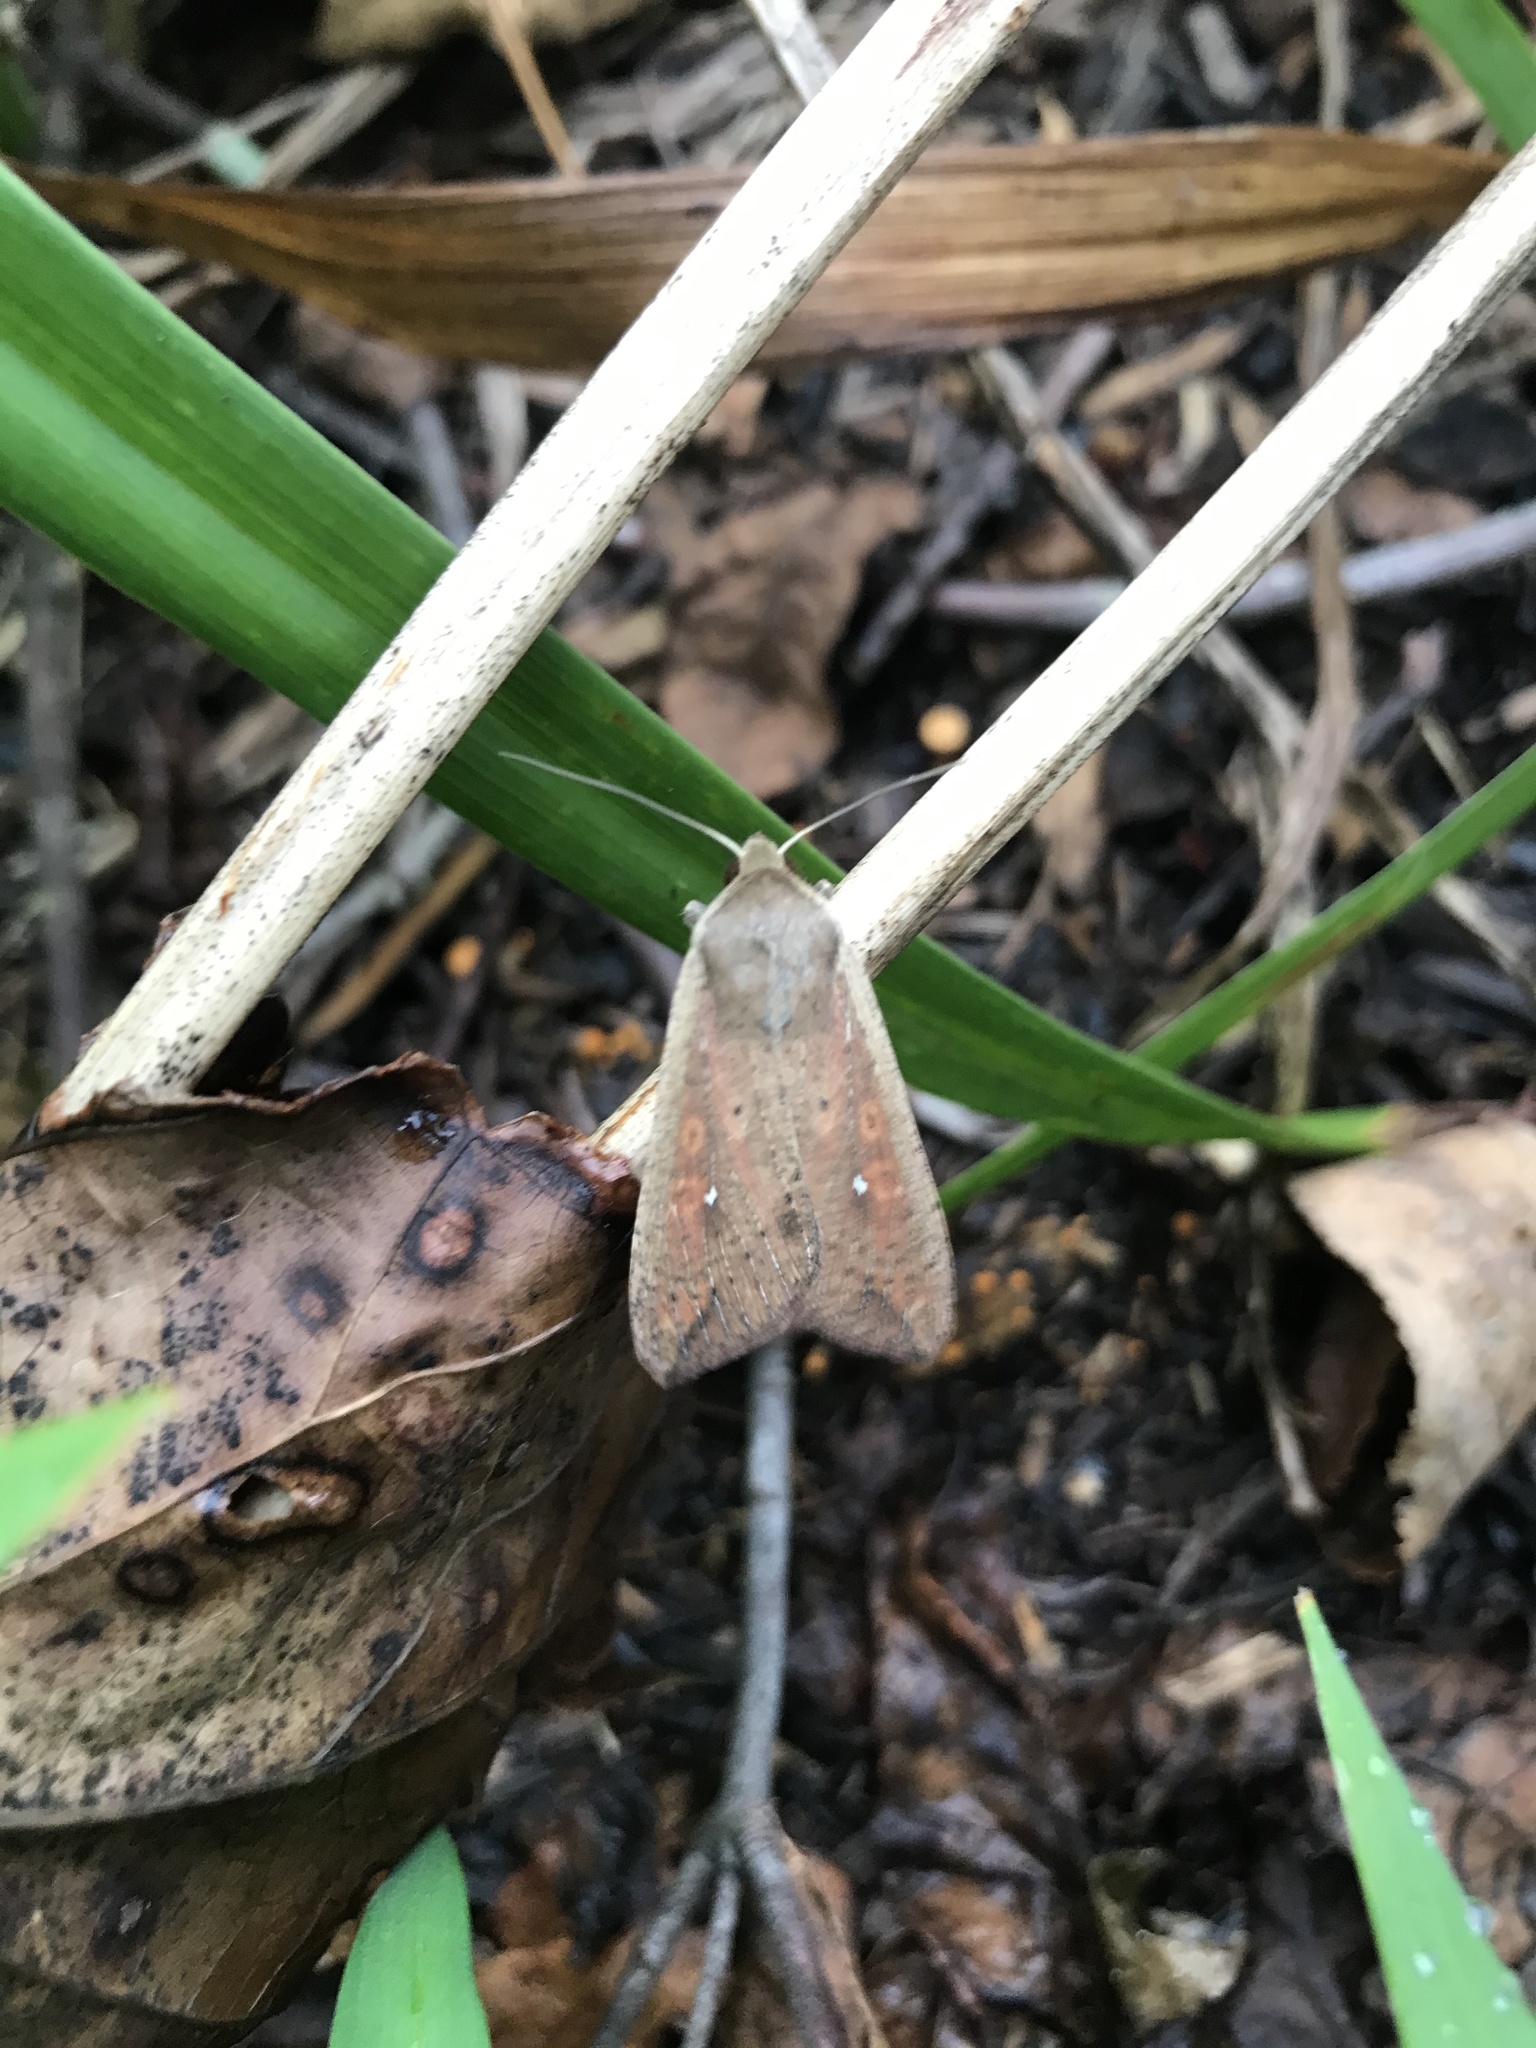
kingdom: Animalia
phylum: Arthropoda
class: Insecta
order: Lepidoptera
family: Noctuidae
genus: Mythimna
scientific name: Mythimna unipuncta
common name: White-speck
